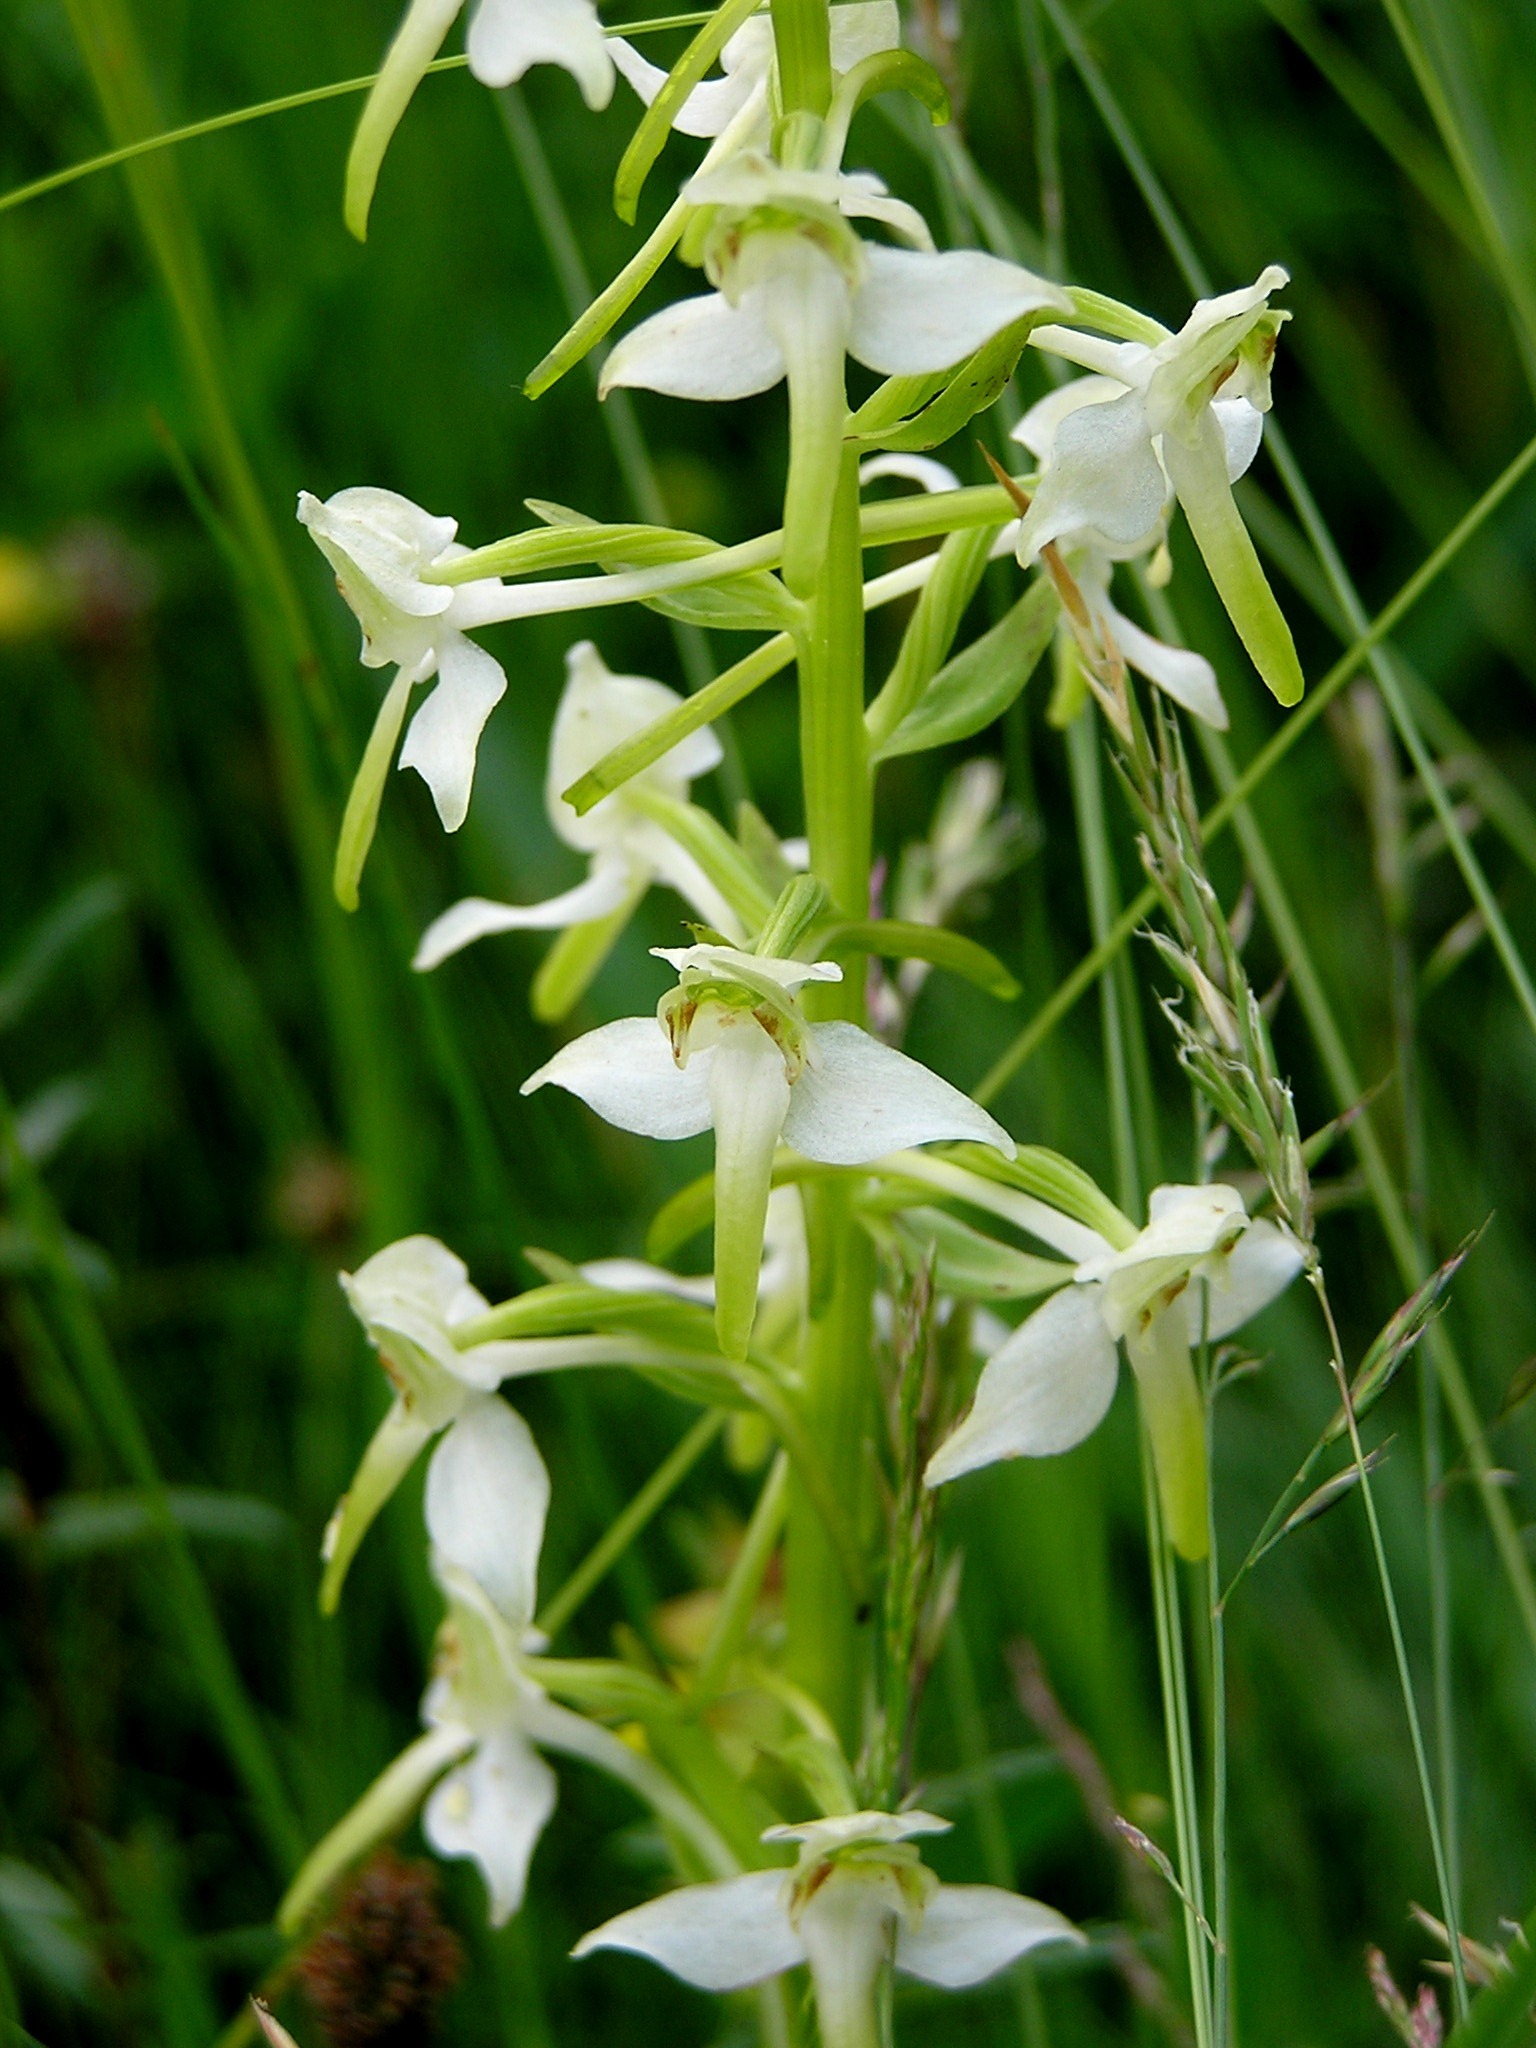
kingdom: Plantae
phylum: Tracheophyta
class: Liliopsida
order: Asparagales
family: Orchidaceae
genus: Platanthera
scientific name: Platanthera chlorantha
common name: Greater butterfly-orchid
